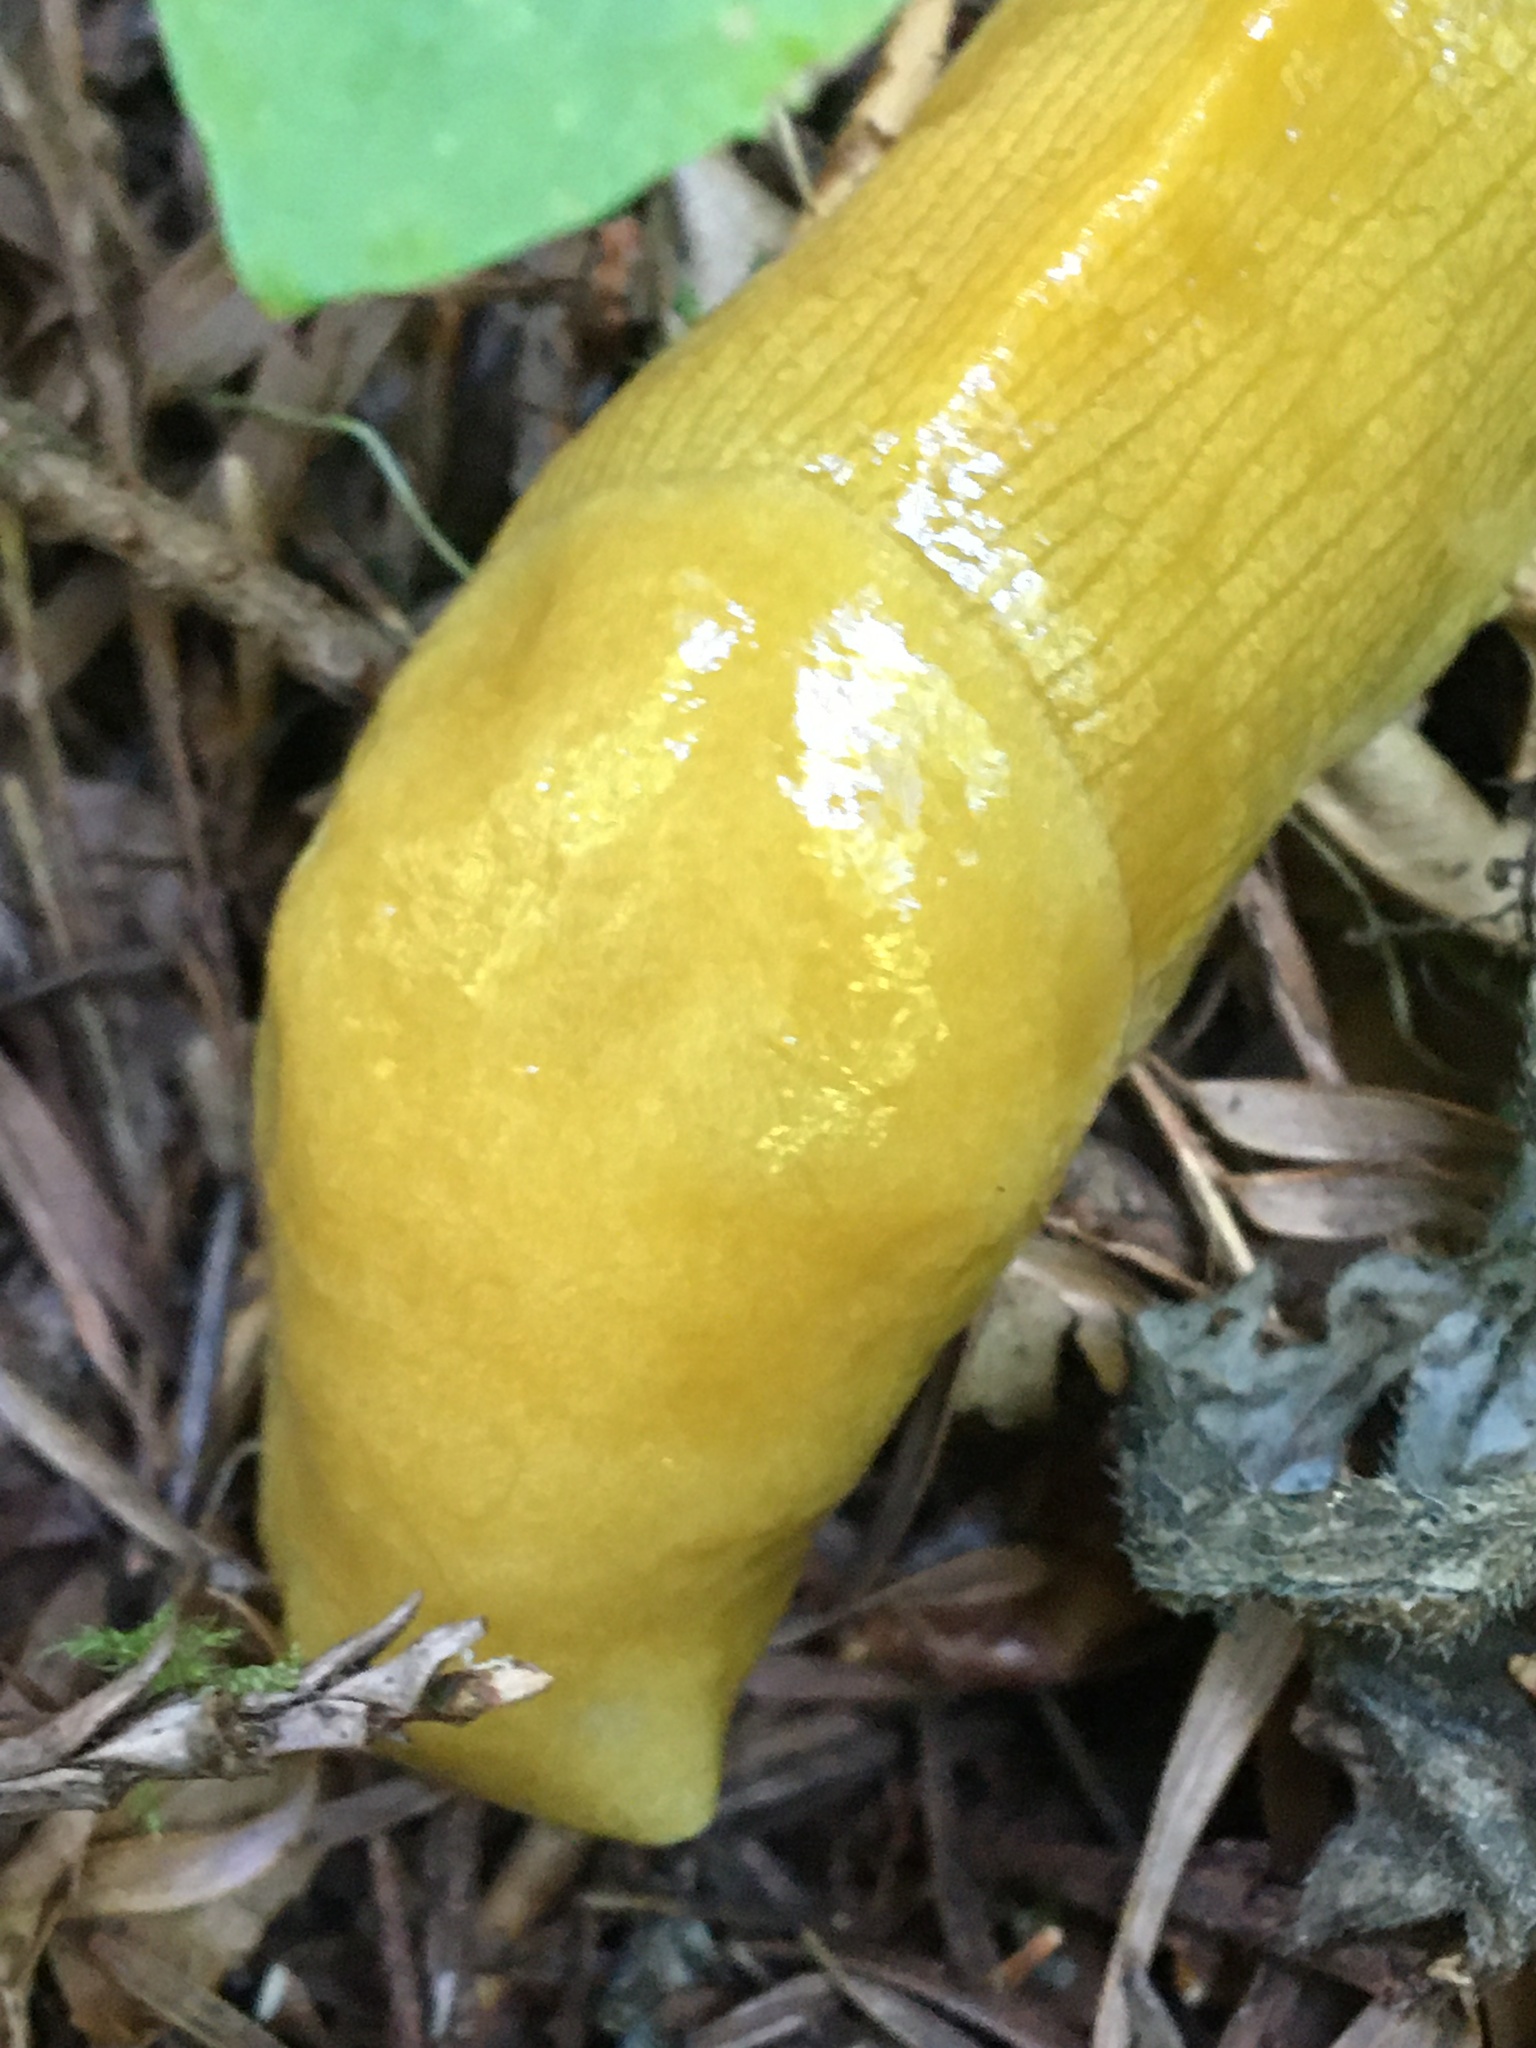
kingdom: Animalia
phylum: Mollusca
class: Gastropoda
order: Stylommatophora
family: Ariolimacidae
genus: Ariolimax
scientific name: Ariolimax columbianus
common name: Pacific banana slug
